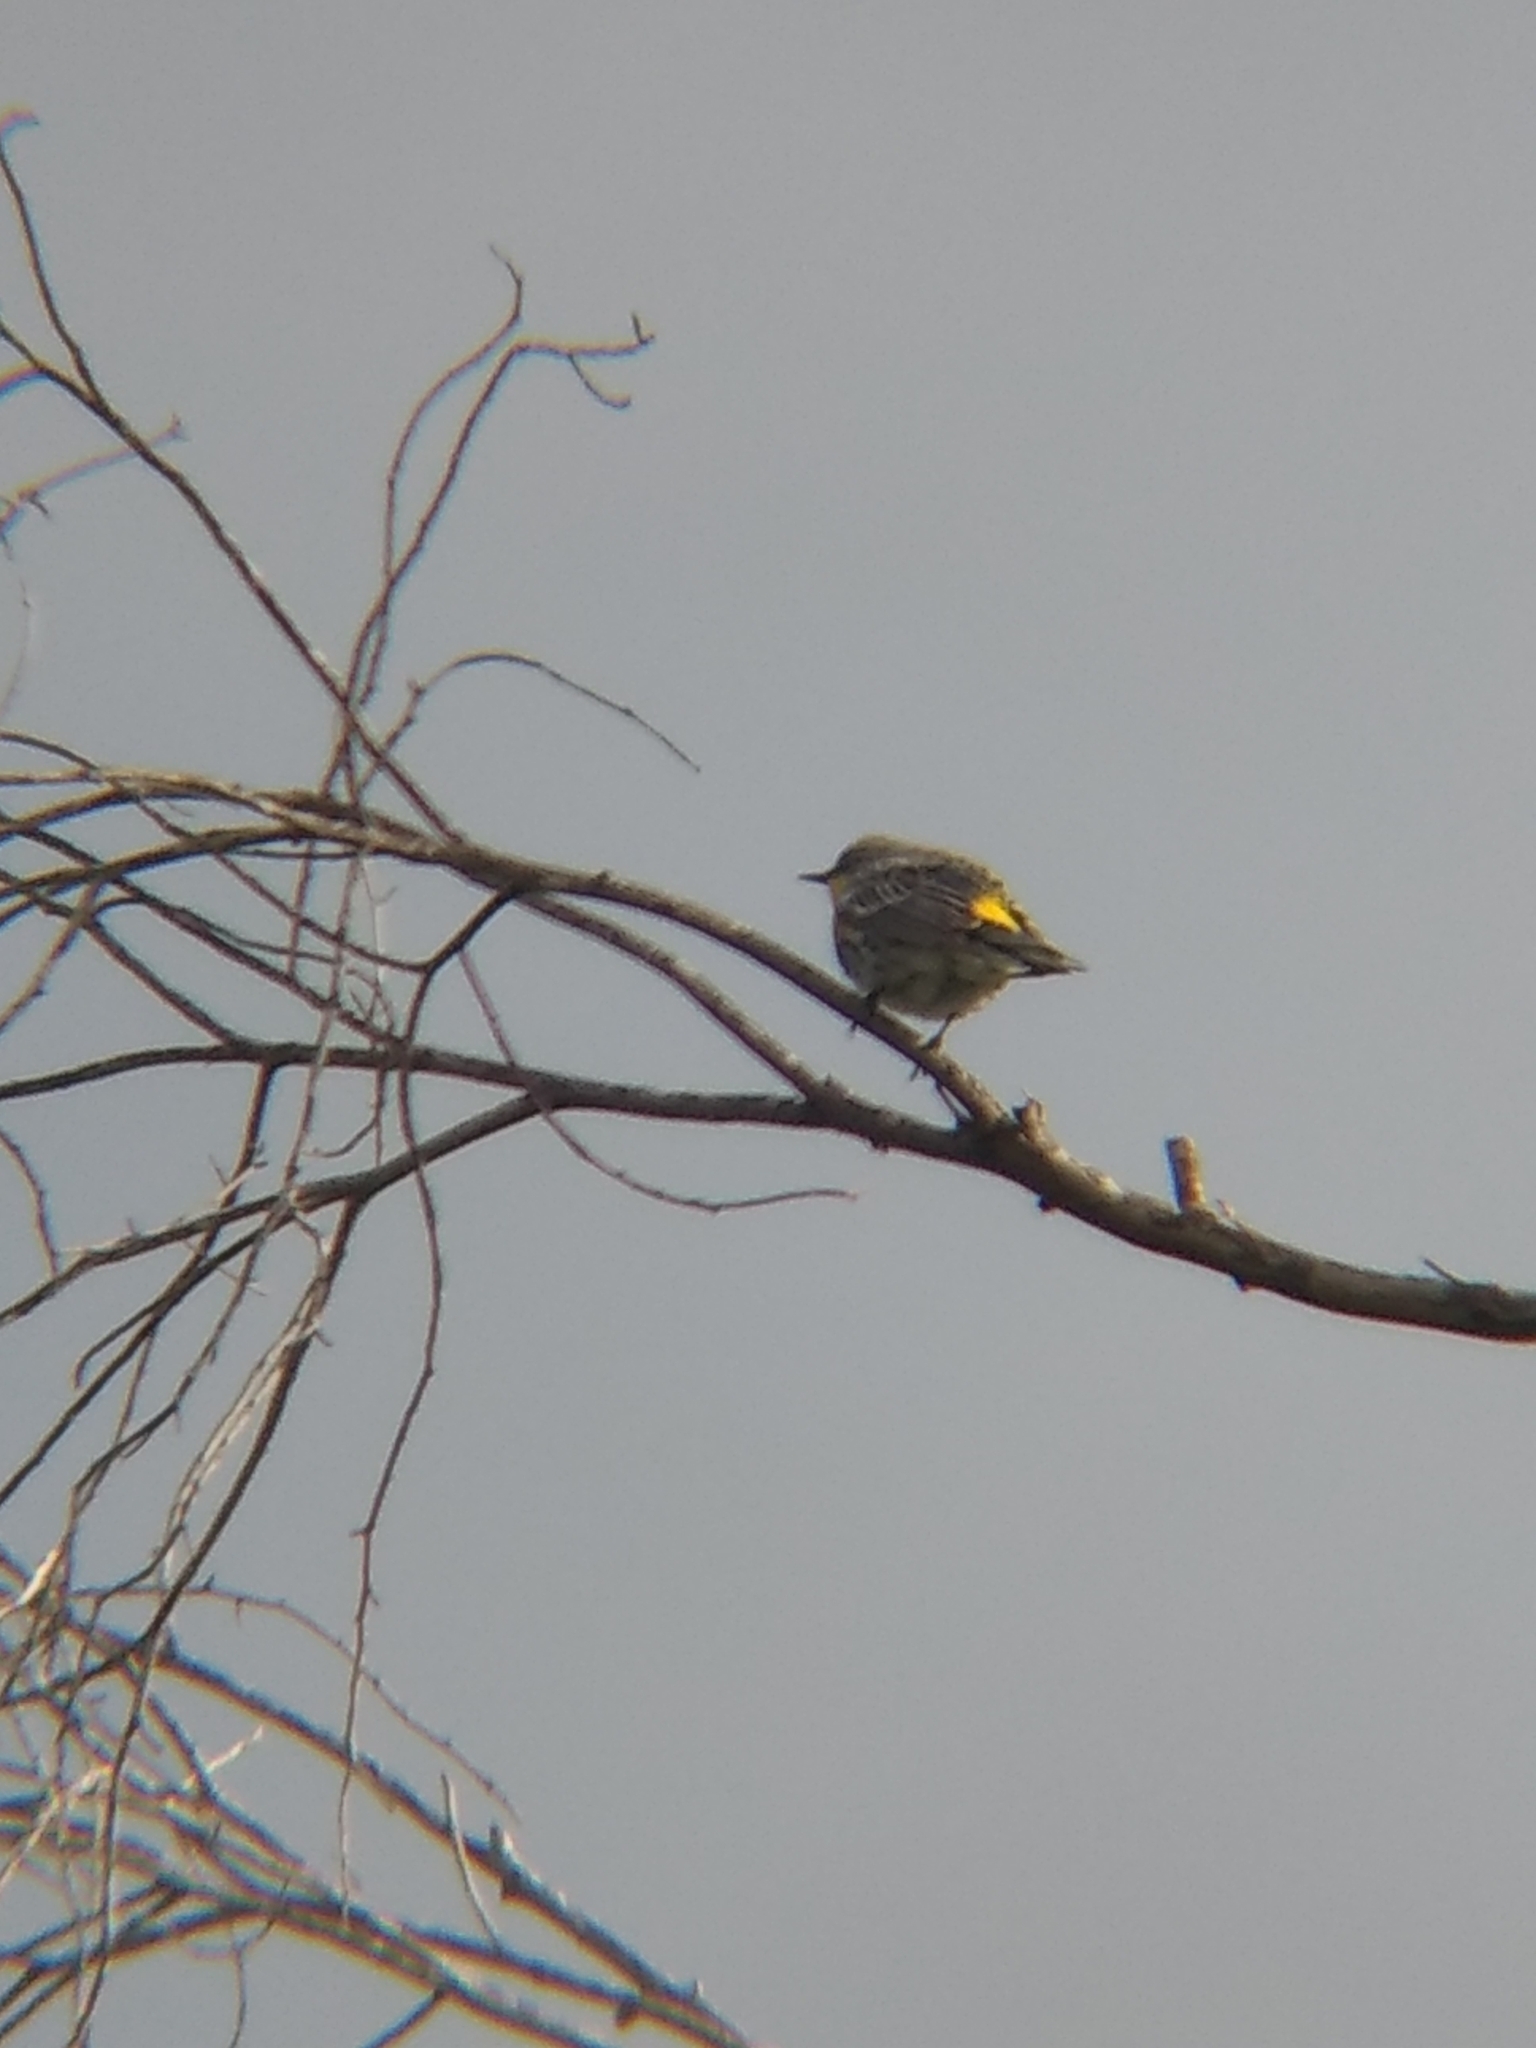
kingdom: Animalia
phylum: Chordata
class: Aves
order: Passeriformes
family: Parulidae
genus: Setophaga
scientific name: Setophaga coronata
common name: Myrtle warbler
